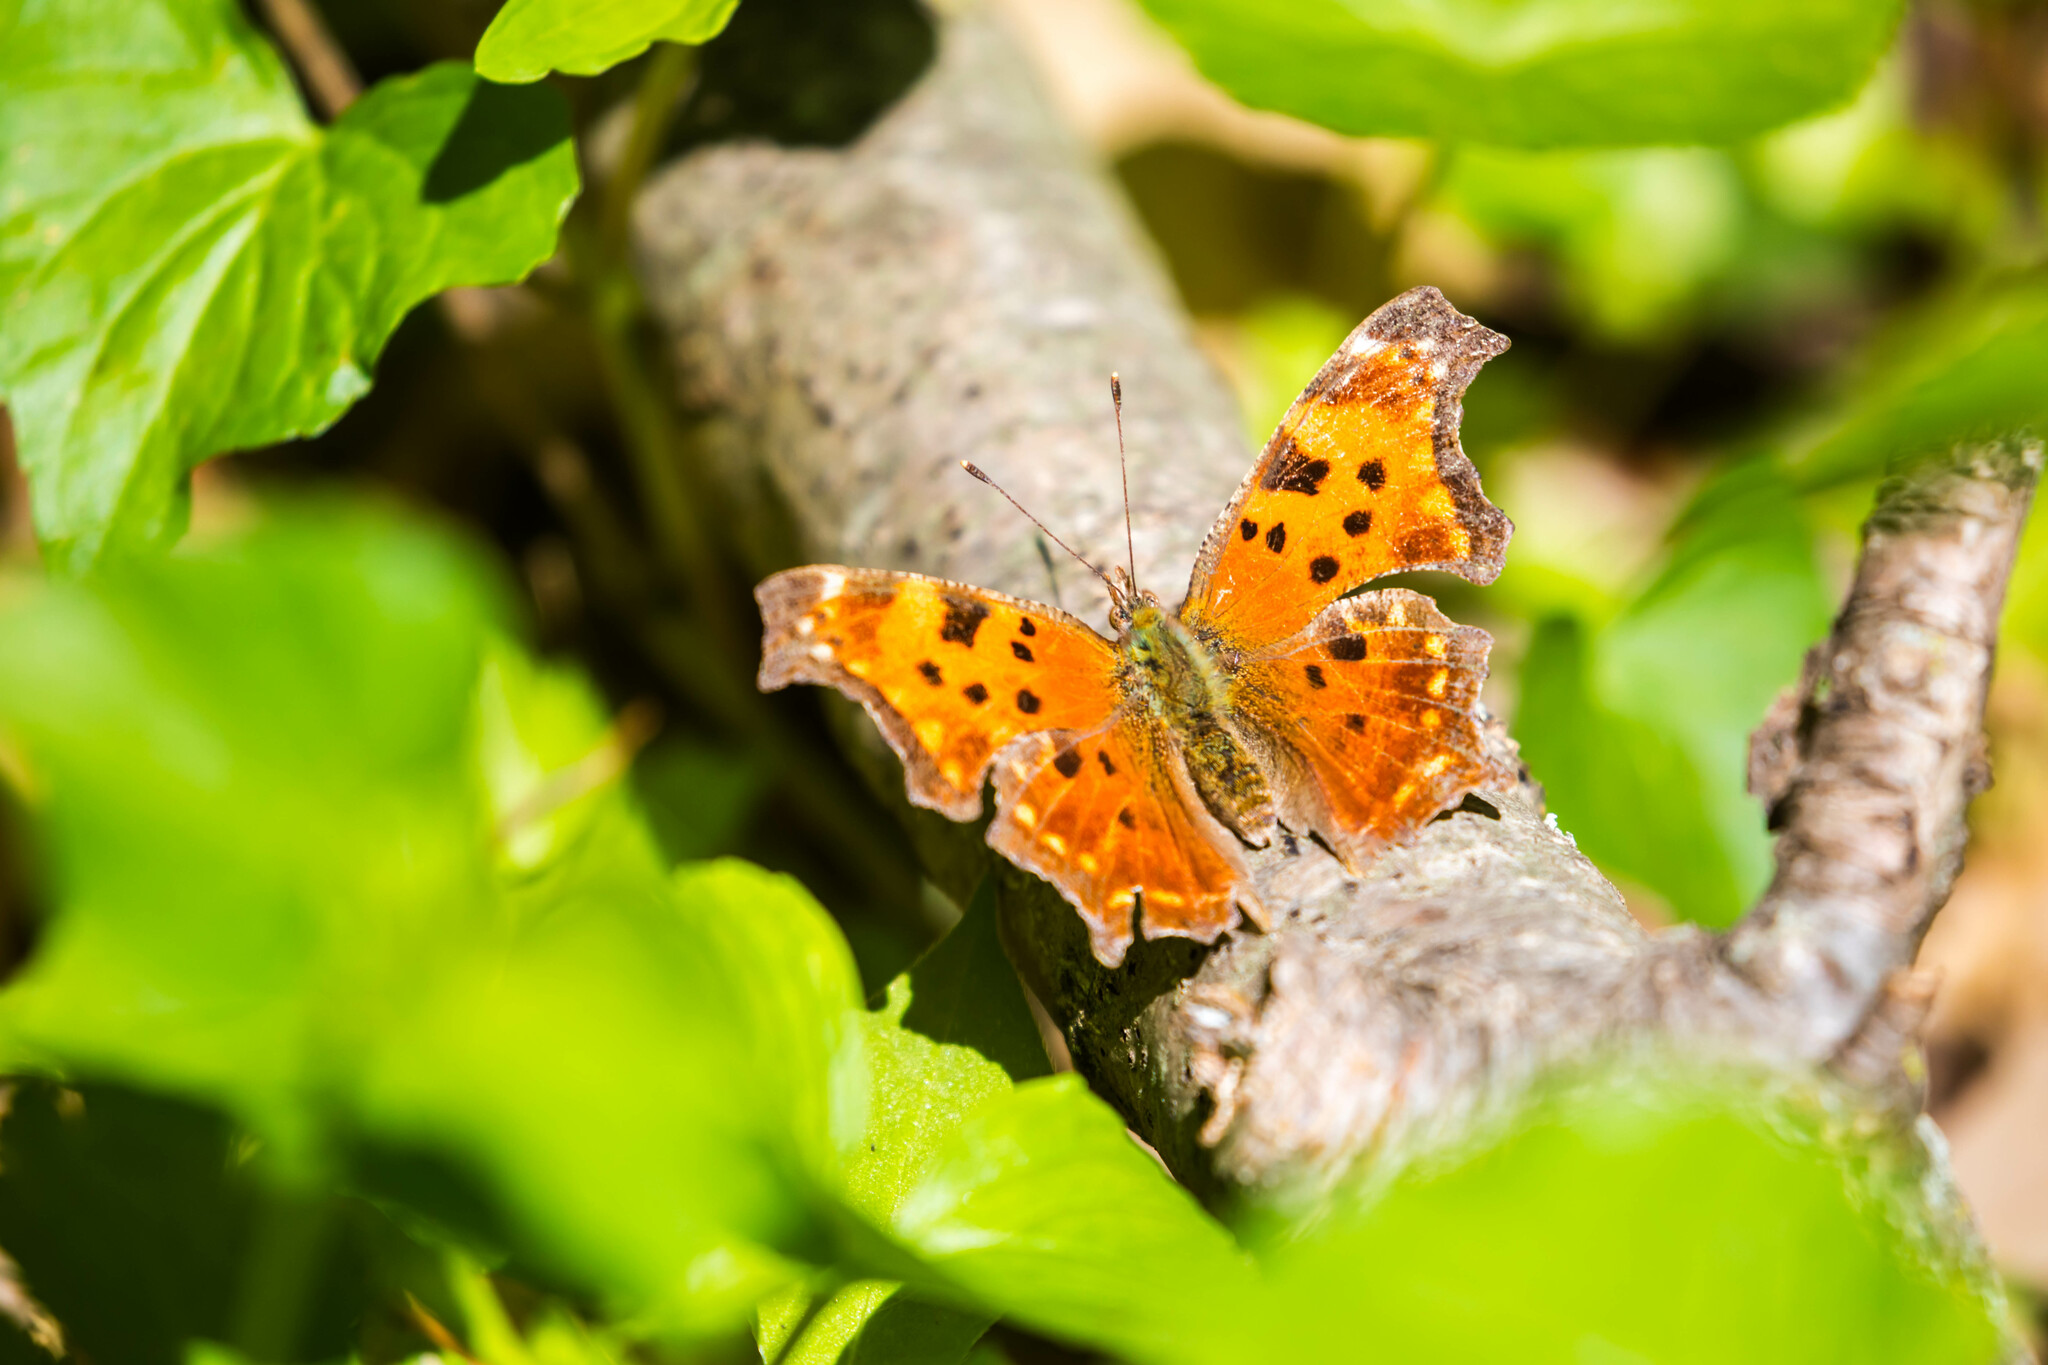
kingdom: Animalia
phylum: Arthropoda
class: Insecta
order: Lepidoptera
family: Nymphalidae
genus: Polygonia
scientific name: Polygonia comma
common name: Eastern comma
